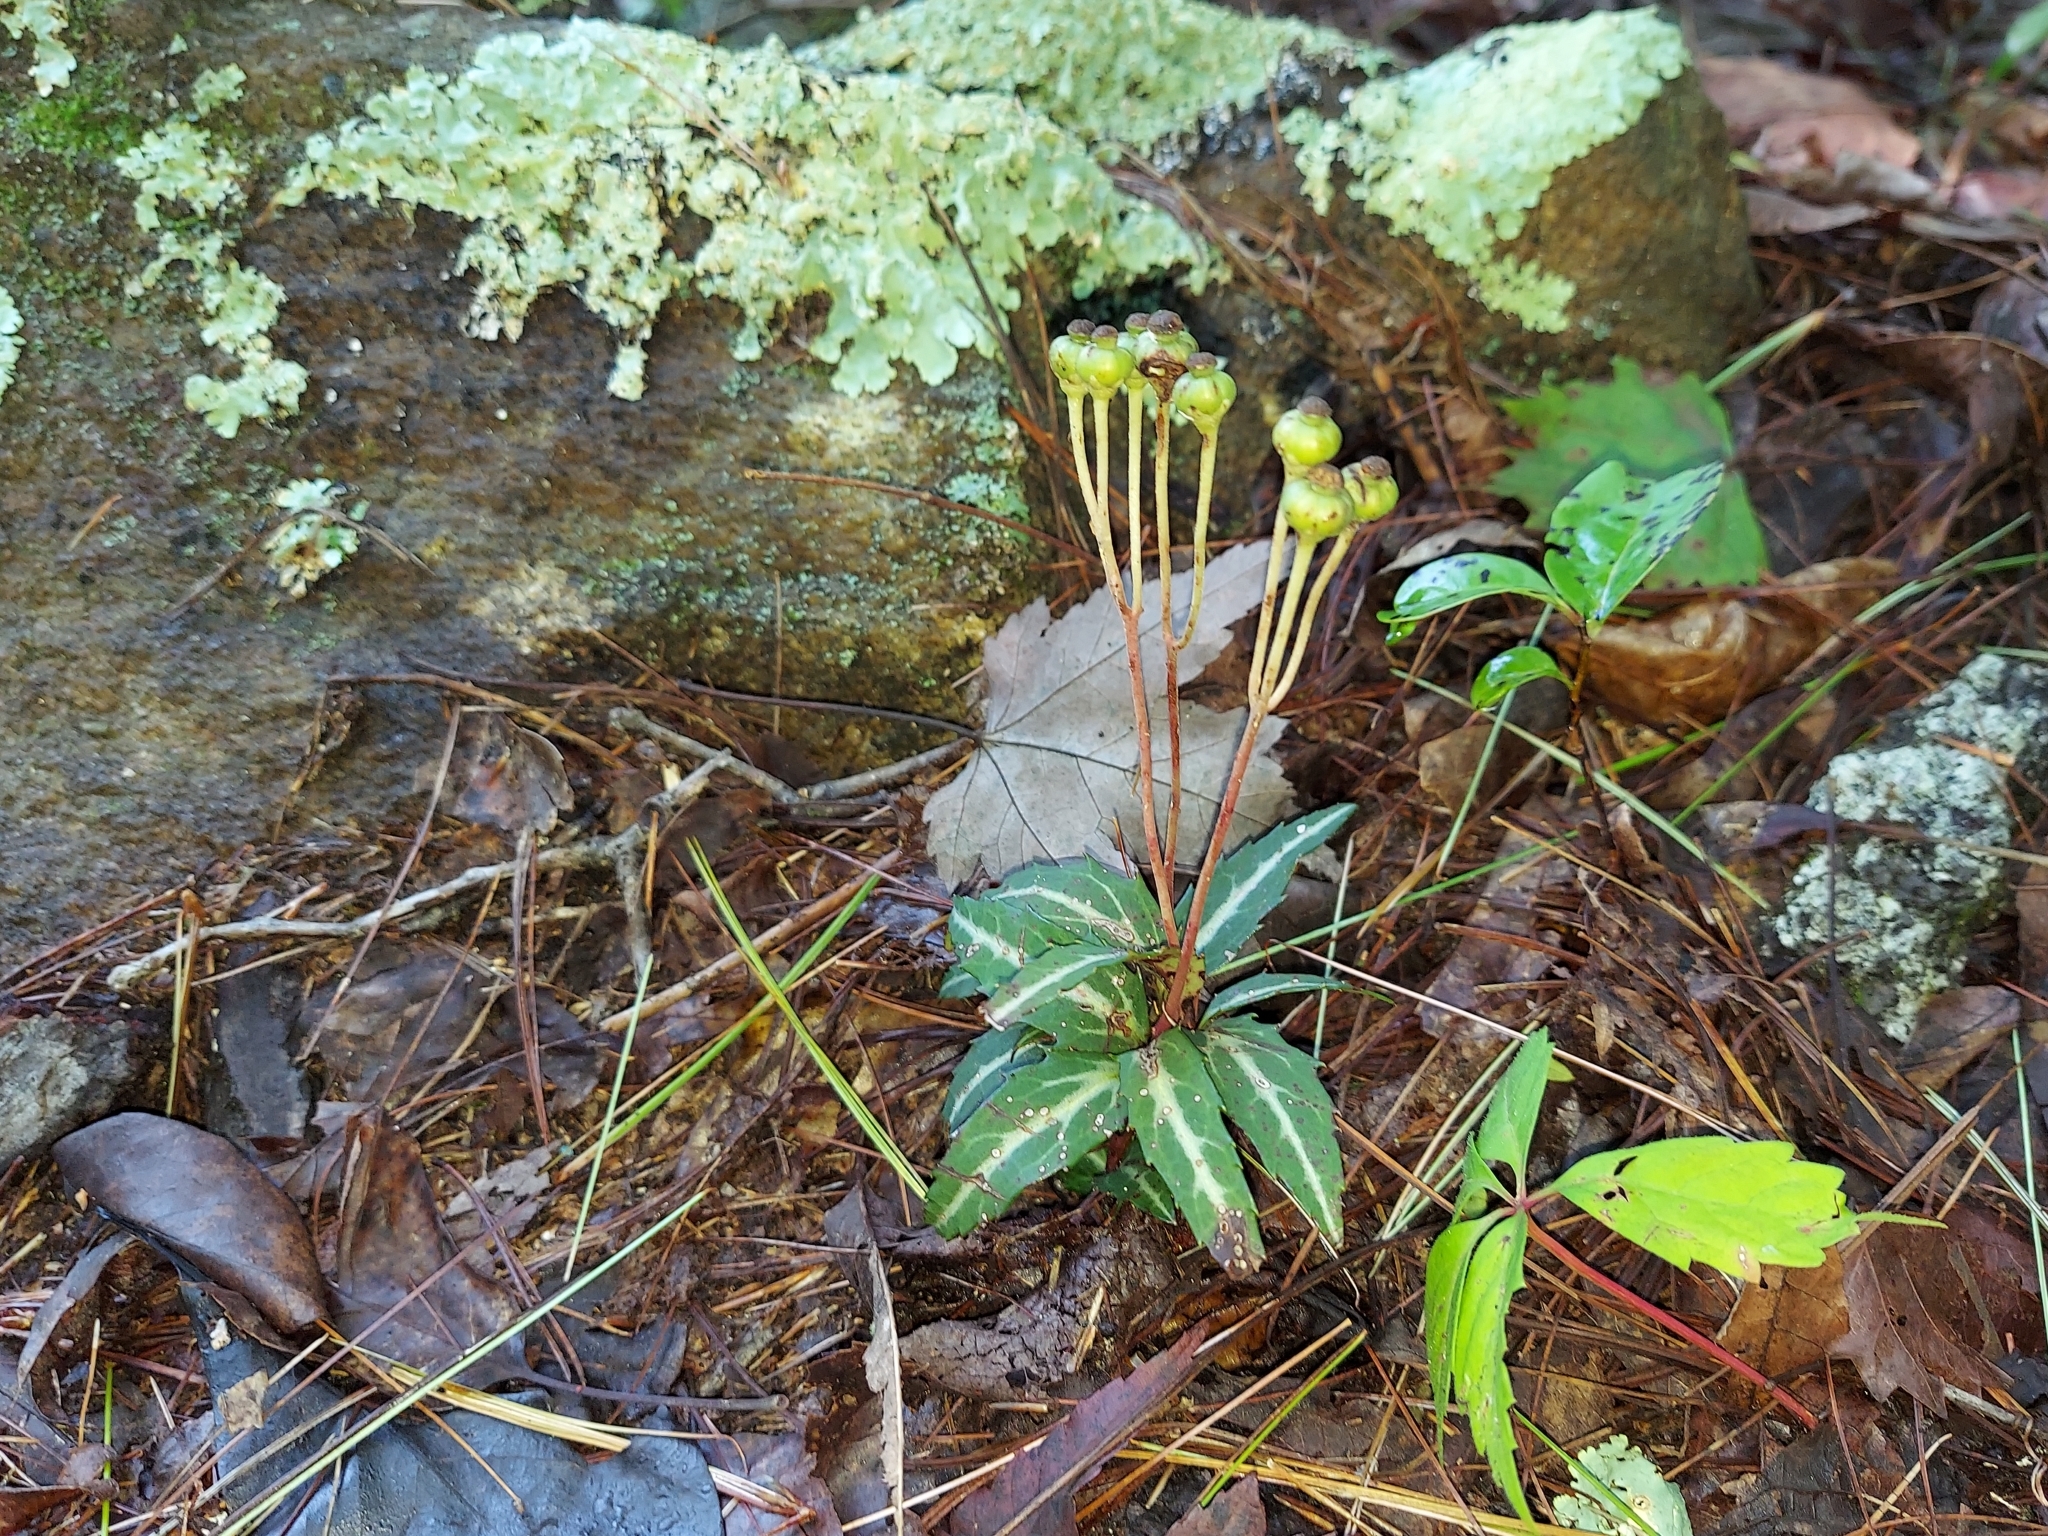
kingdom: Plantae
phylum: Tracheophyta
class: Magnoliopsida
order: Ericales
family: Ericaceae
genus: Chimaphila
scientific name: Chimaphila maculata
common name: Spotted pipsissewa
